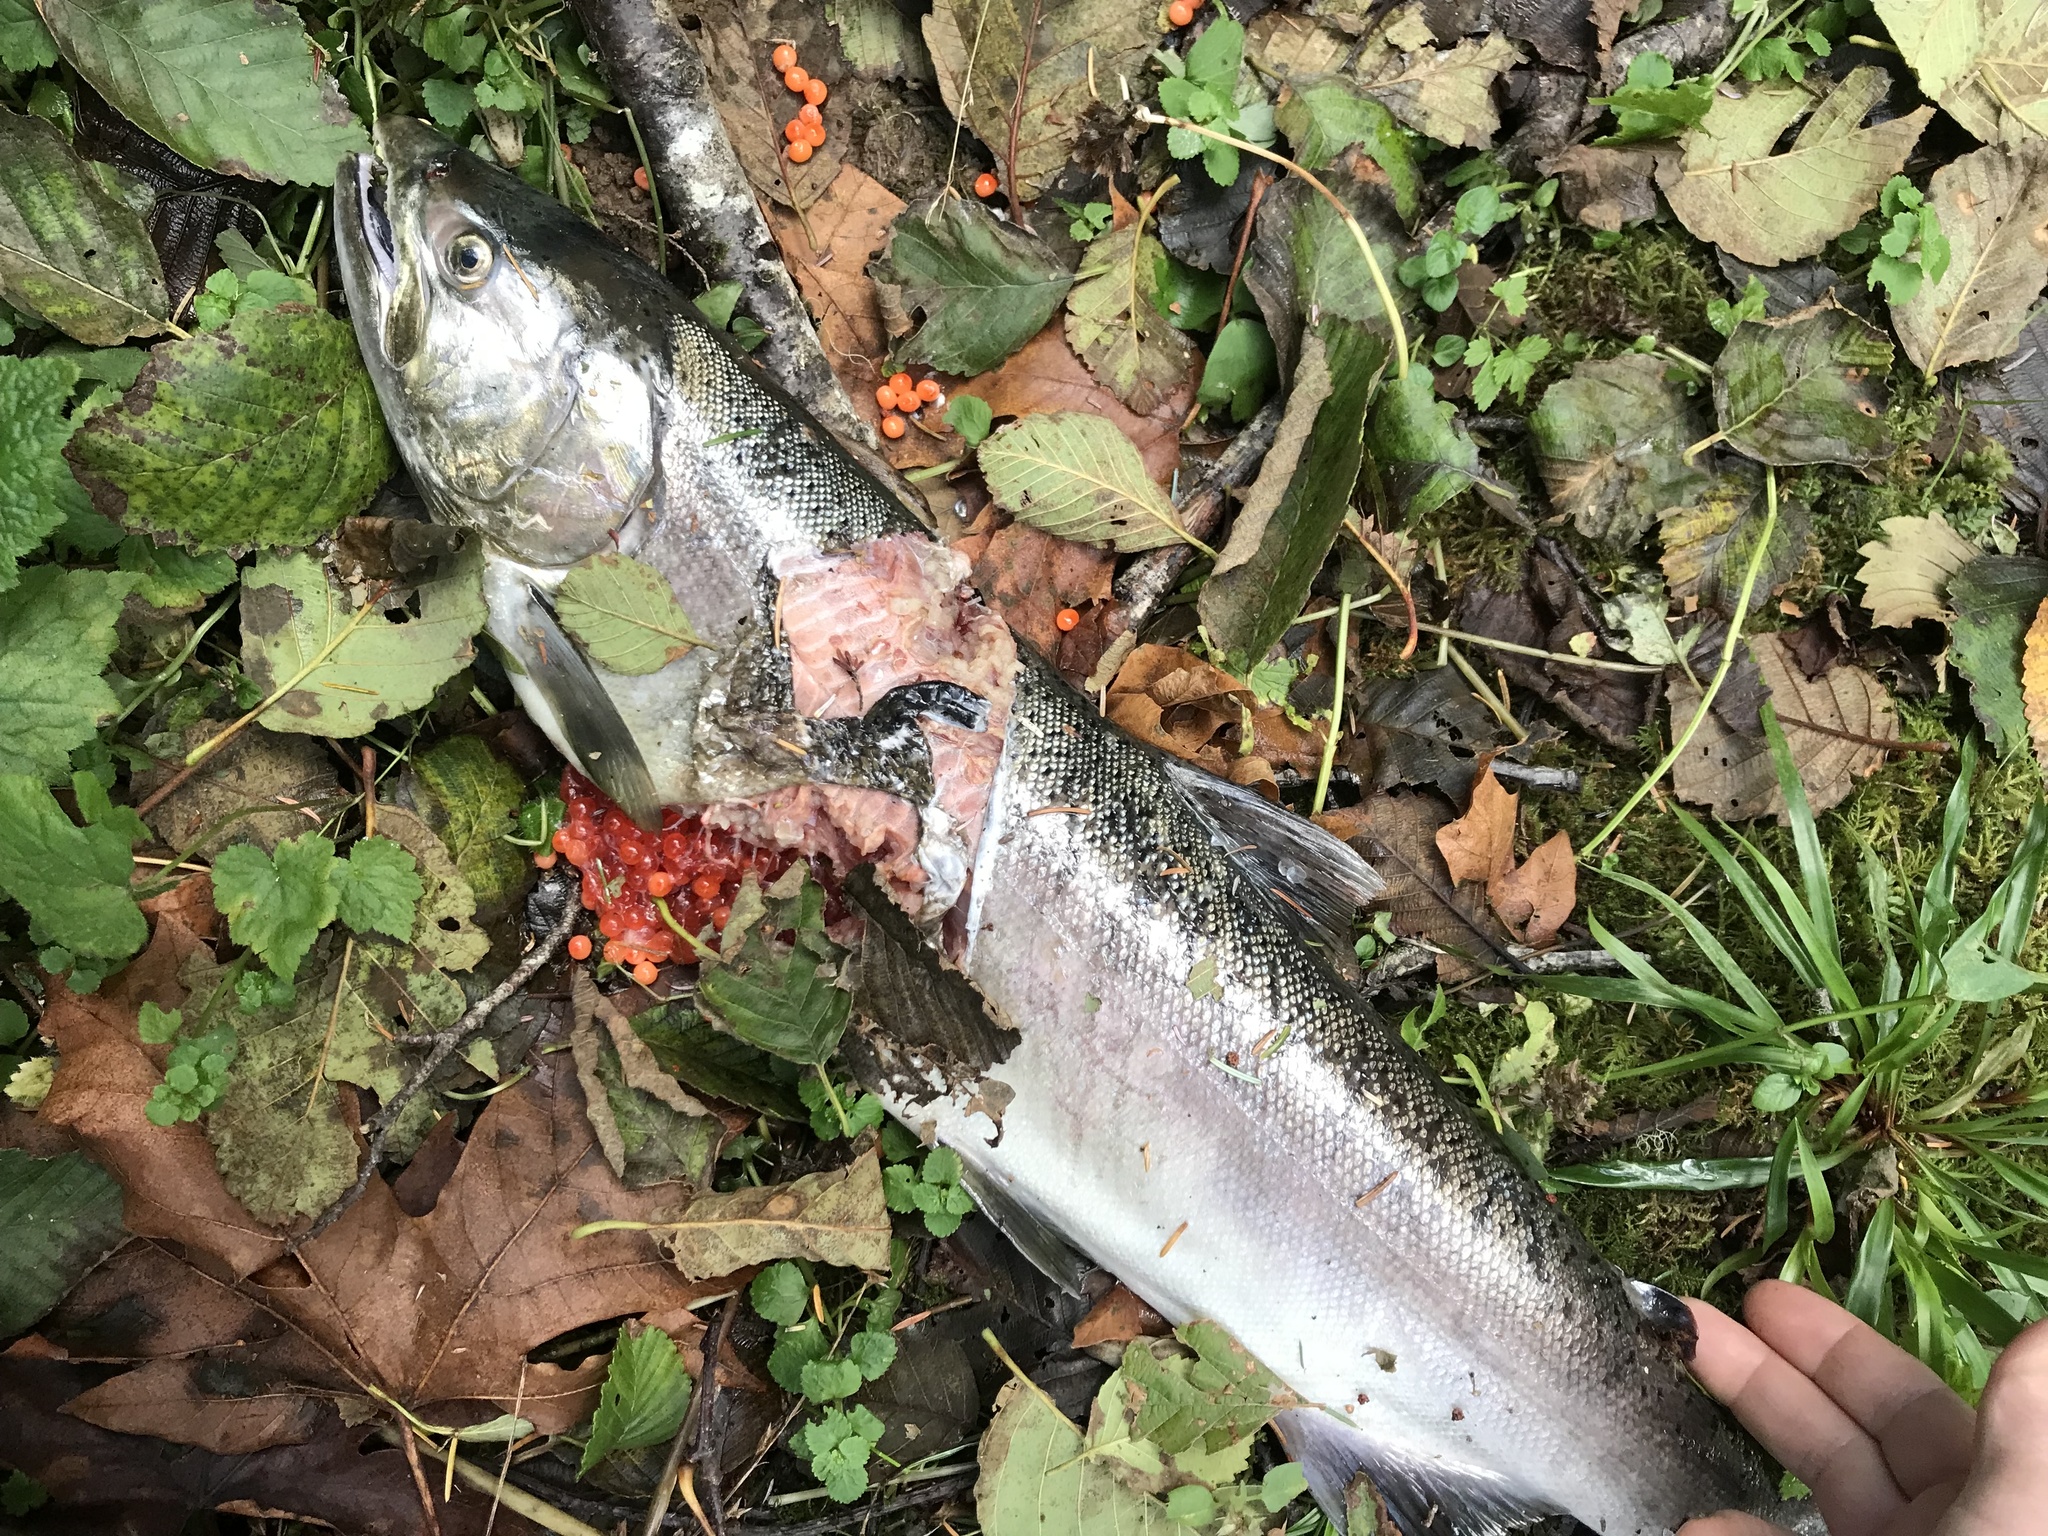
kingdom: Animalia
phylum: Chordata
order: Salmoniformes
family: Salmonidae
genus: Oncorhynchus
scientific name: Oncorhynchus kisutch
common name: Coho salmon
